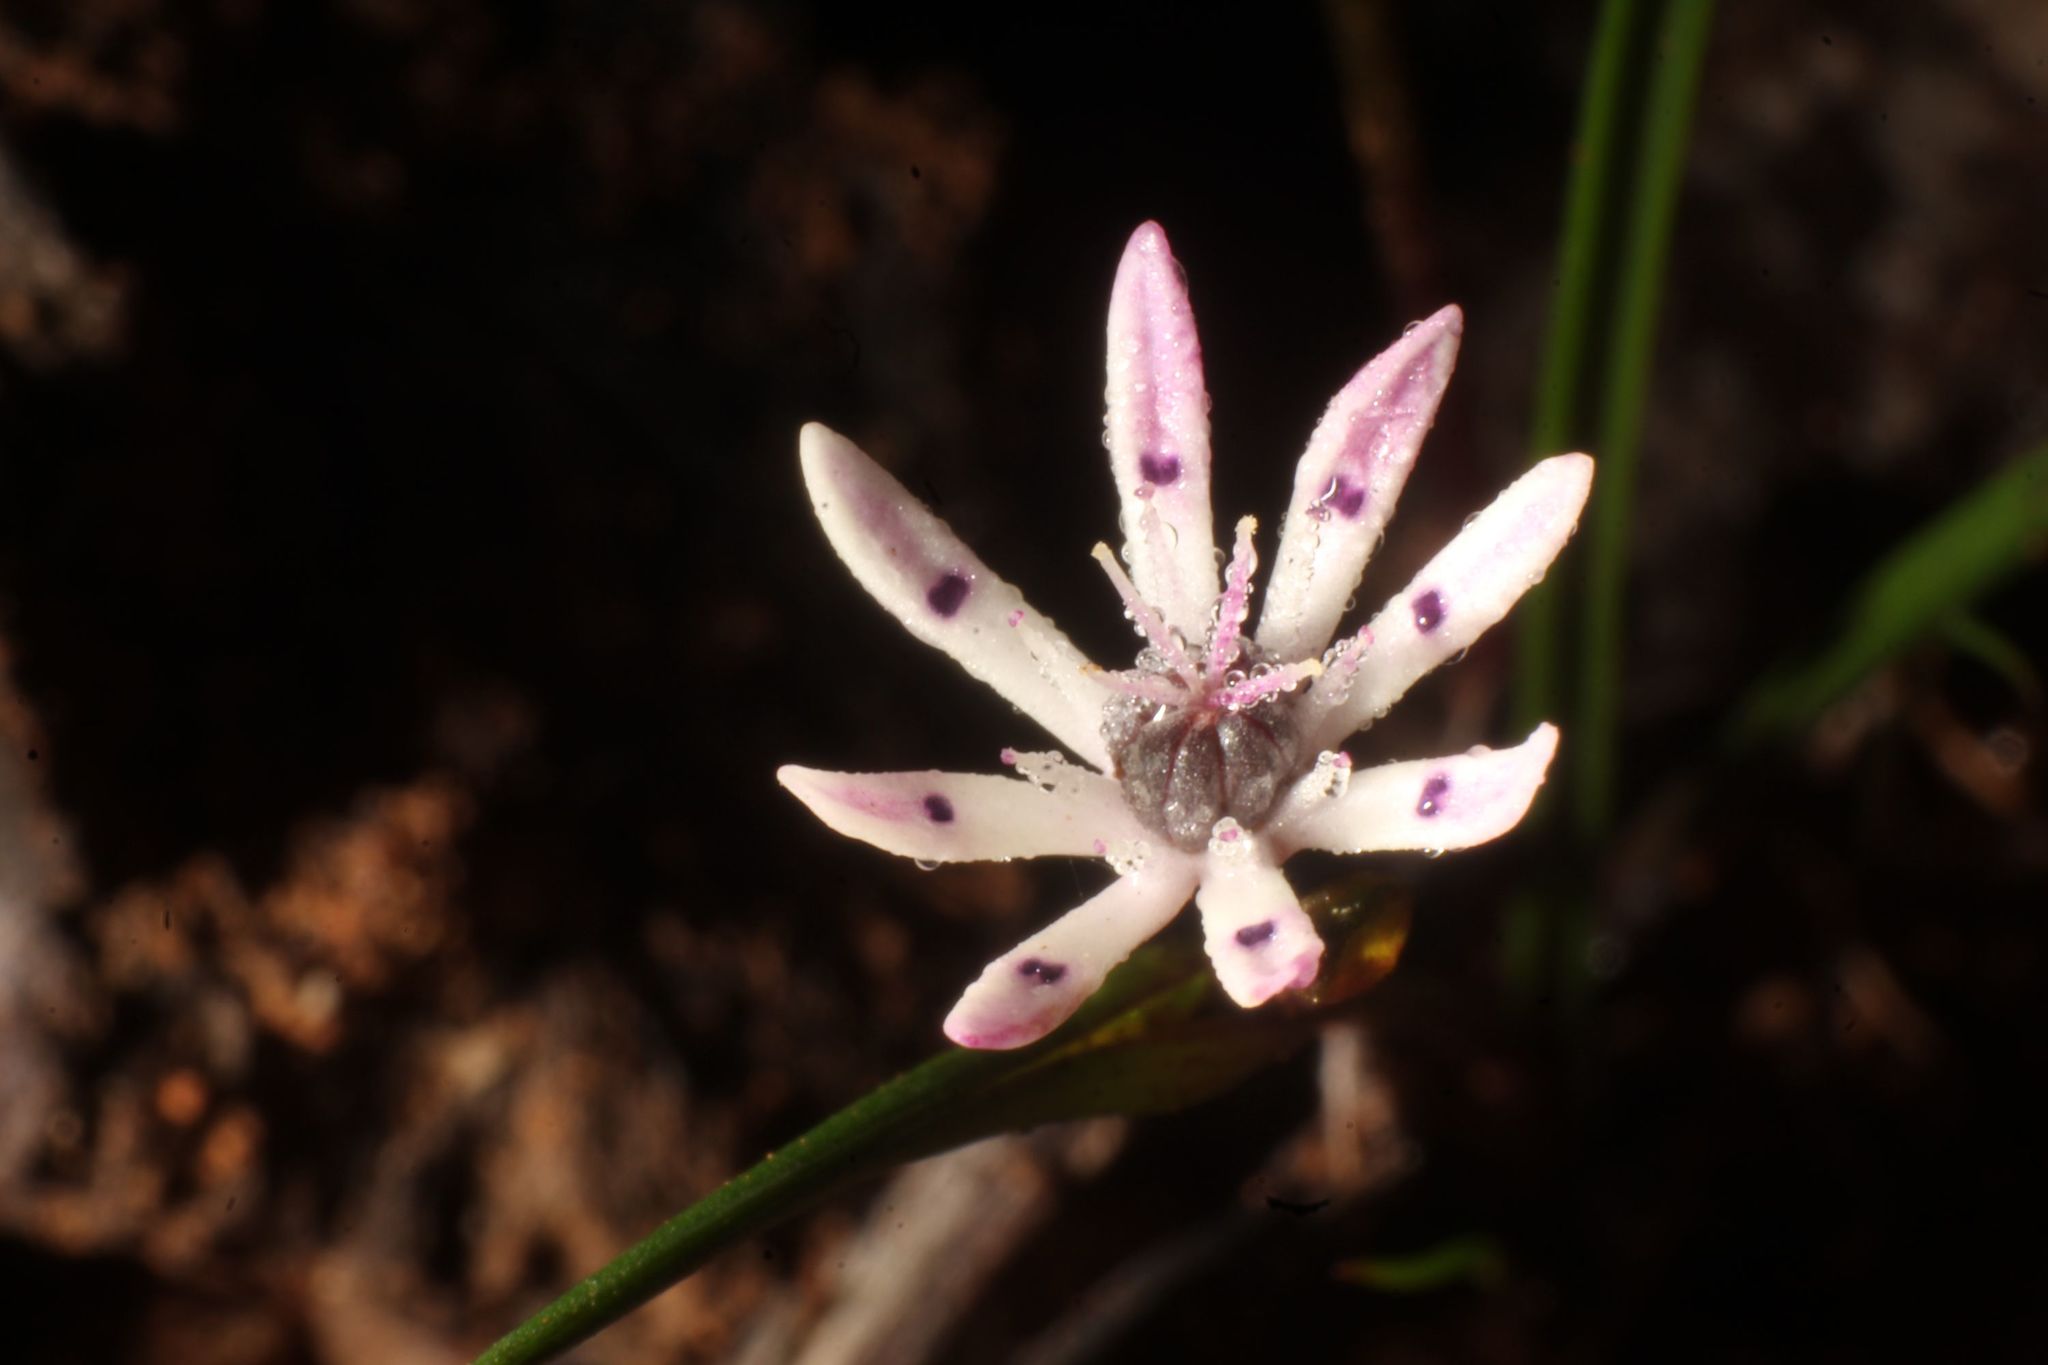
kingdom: Plantae
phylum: Tracheophyta
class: Liliopsida
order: Liliales
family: Colchicaceae
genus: Wurmbea
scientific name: Wurmbea tenella
